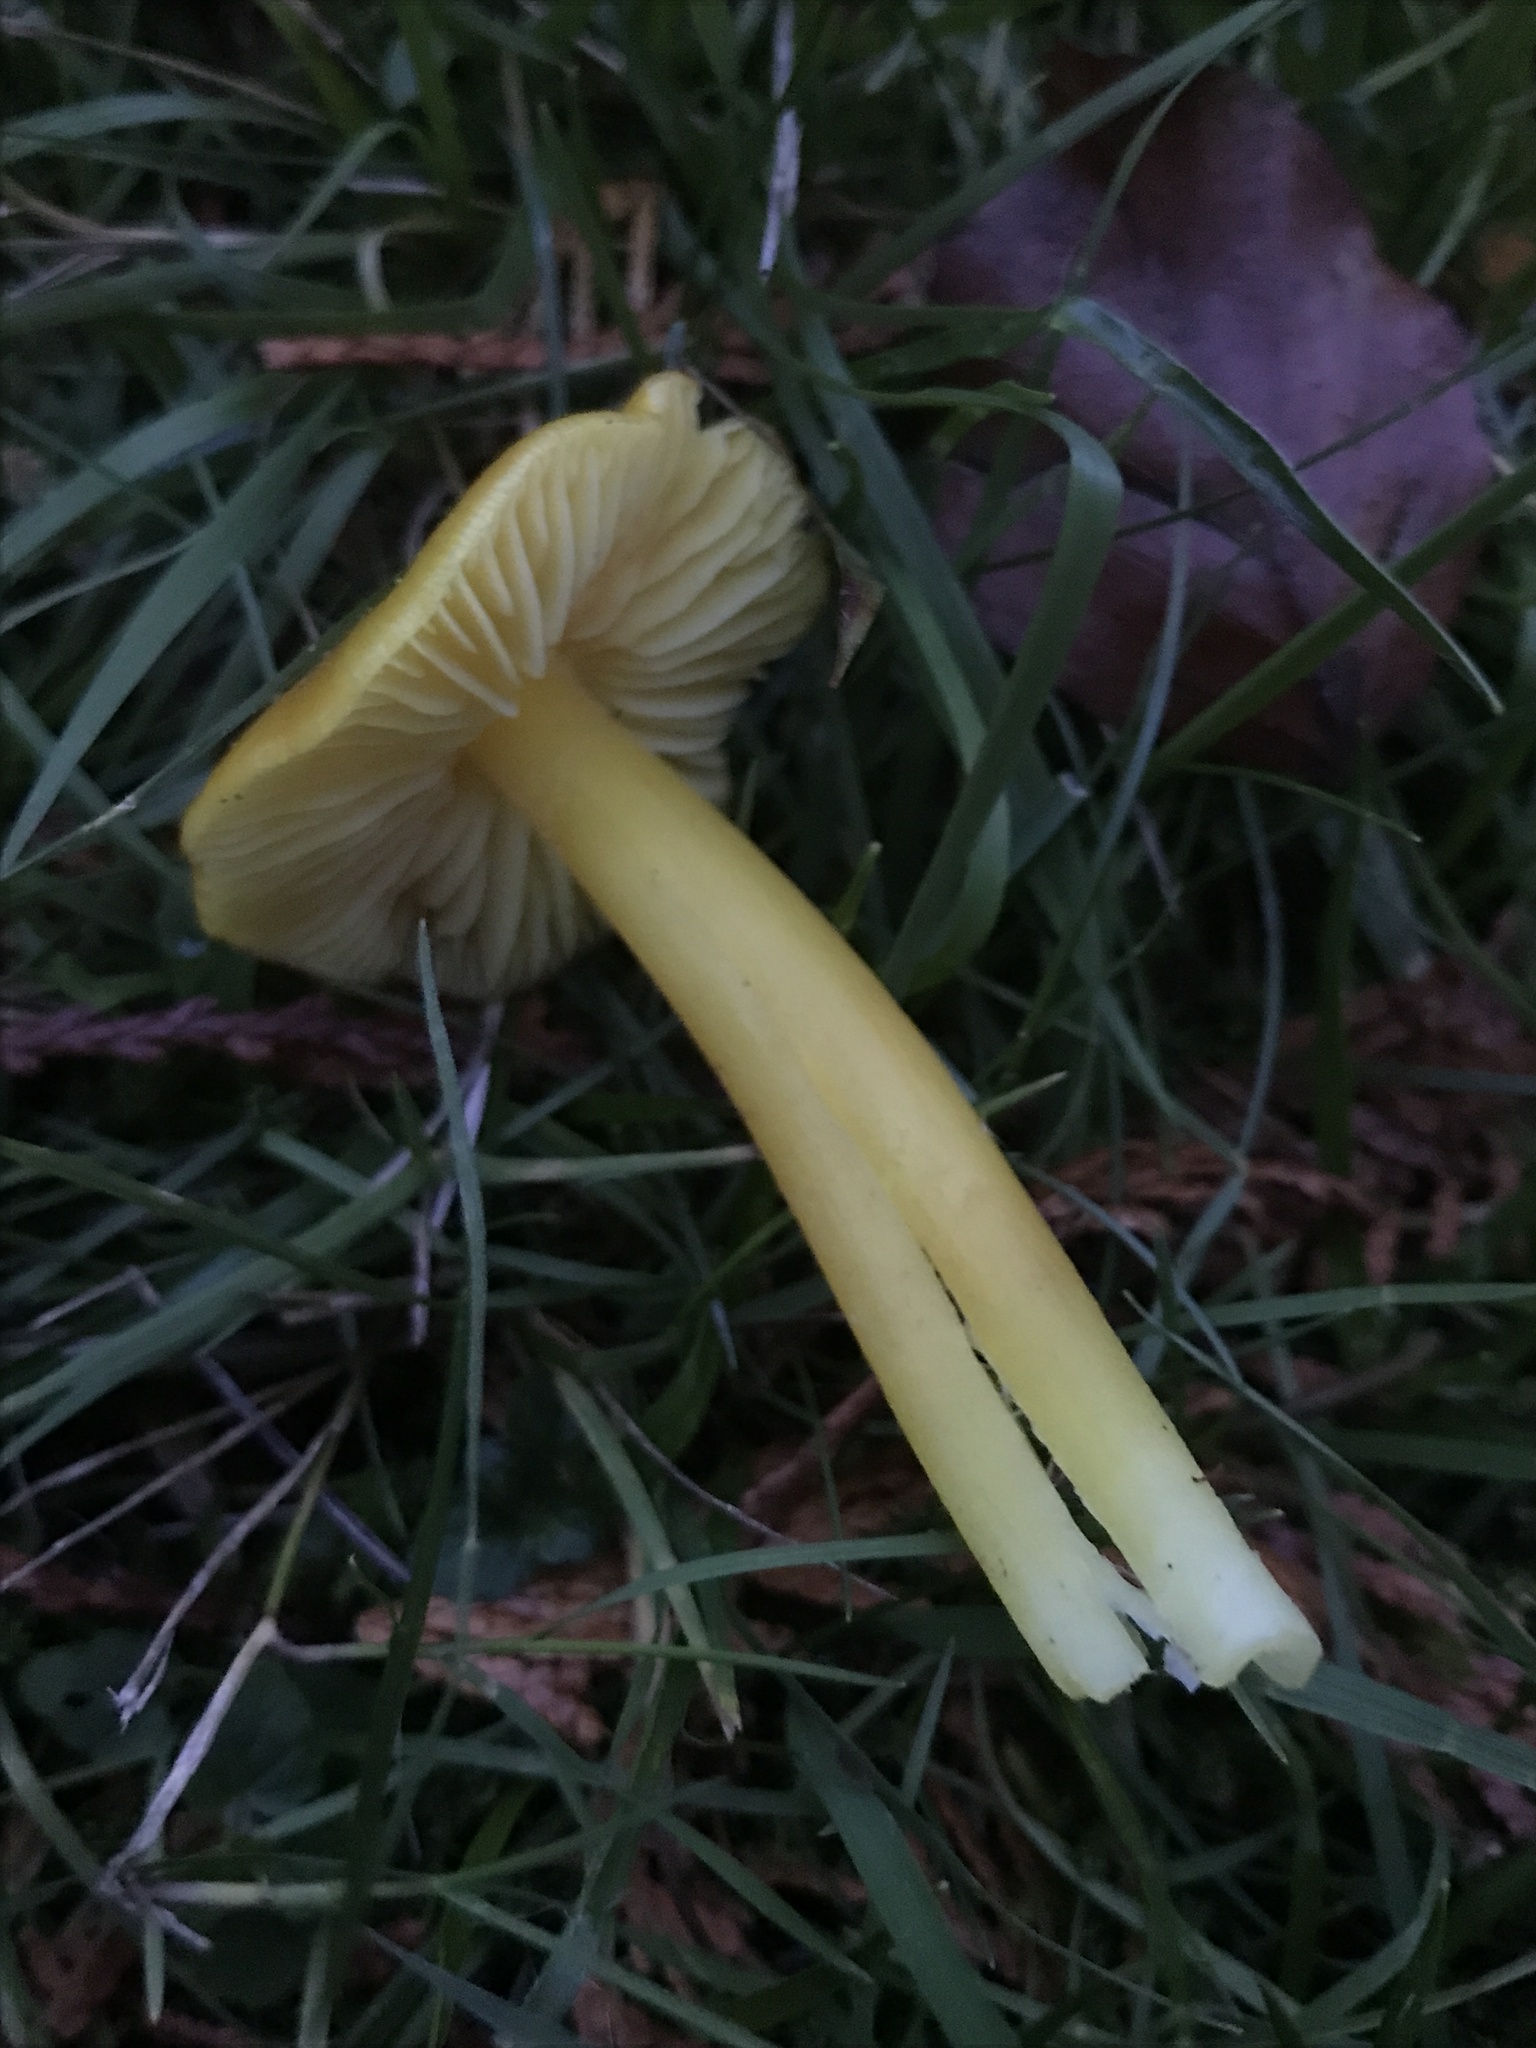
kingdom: Fungi
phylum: Basidiomycota
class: Agaricomycetes
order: Agaricales
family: Hygrophoraceae
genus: Hygrocybe
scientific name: Hygrocybe chlorophana
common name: Golden waxcap
